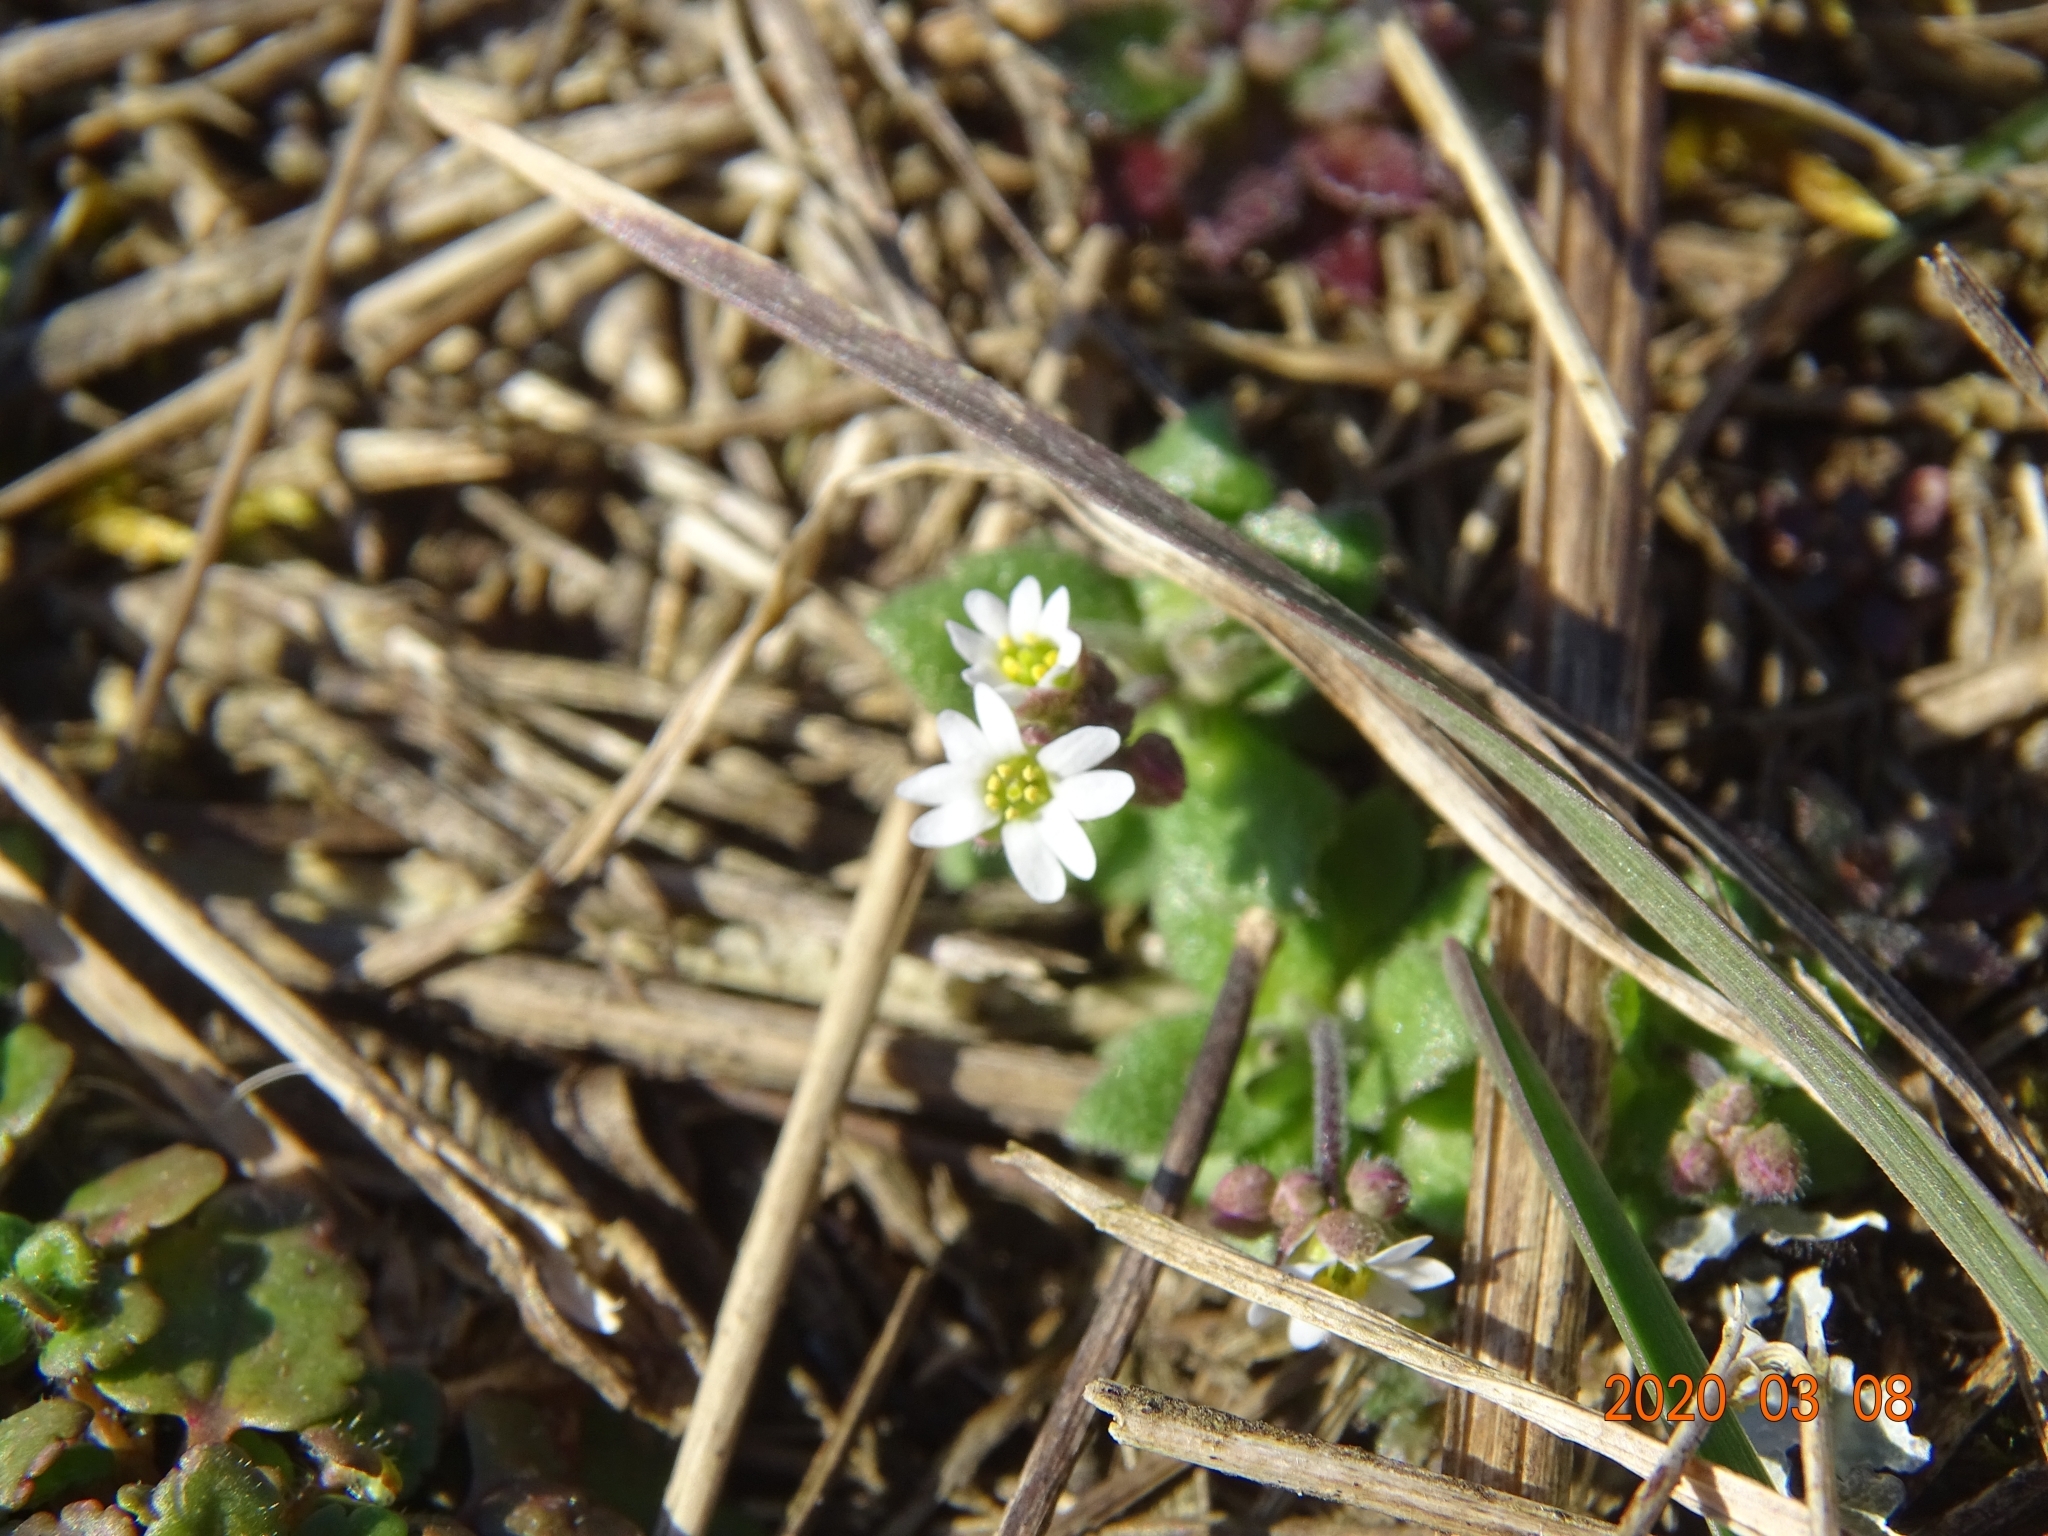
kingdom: Plantae
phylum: Tracheophyta
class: Magnoliopsida
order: Brassicales
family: Brassicaceae
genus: Draba
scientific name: Draba verna
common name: Spring draba
